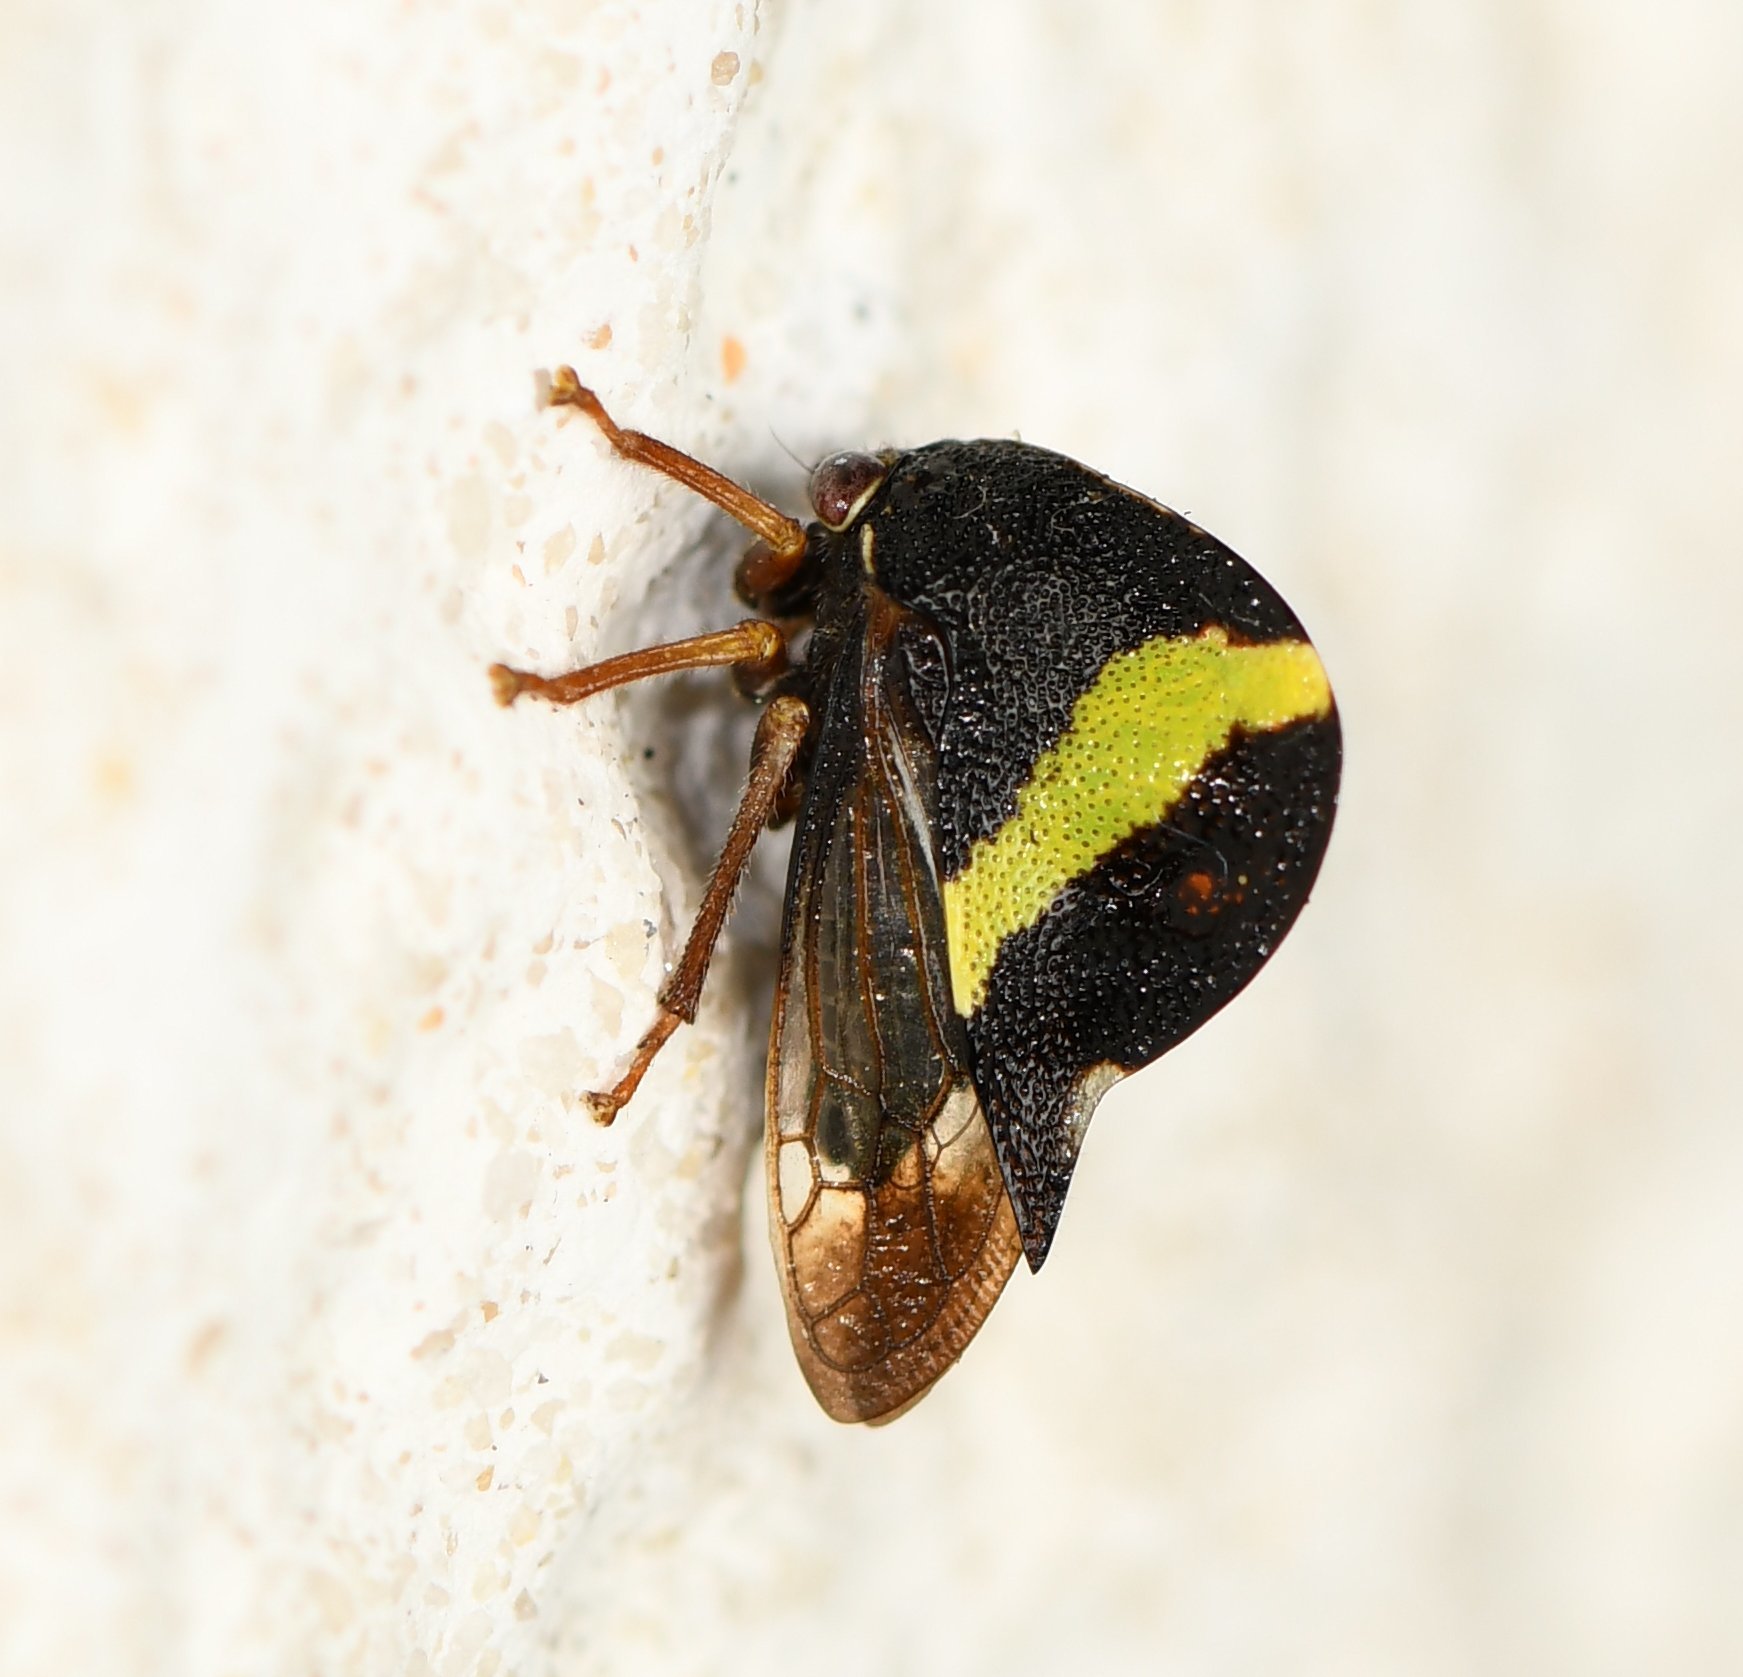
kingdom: Animalia
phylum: Arthropoda
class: Insecta
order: Hemiptera
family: Membracidae
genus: Smilia
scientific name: Smilia fasciata
